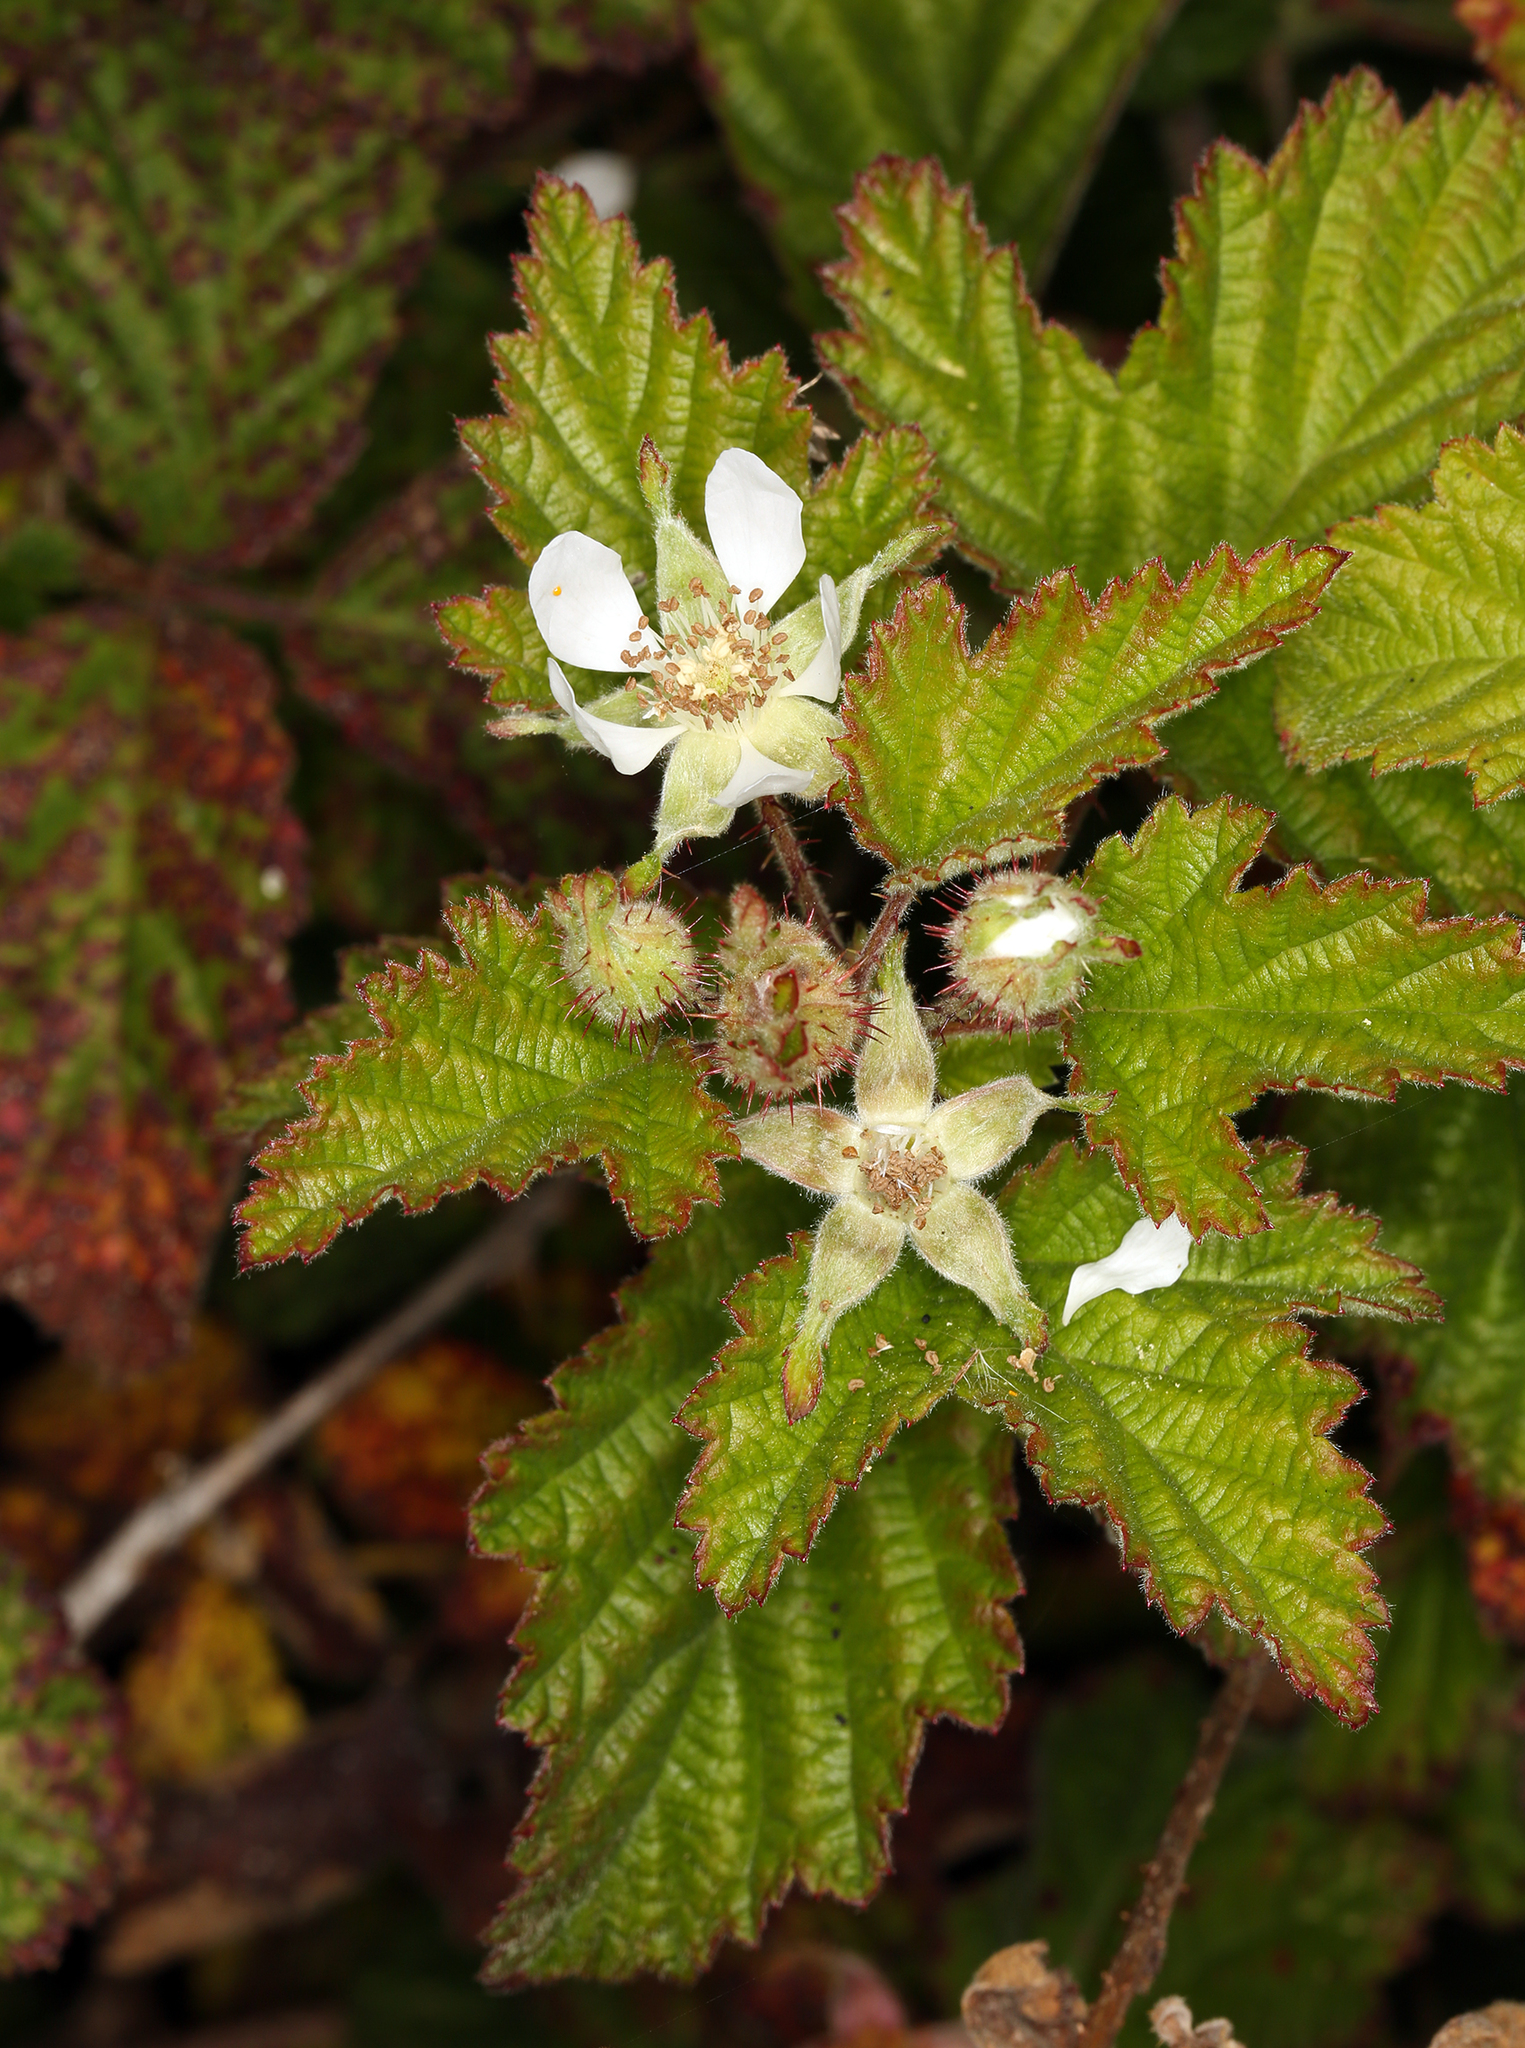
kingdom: Plantae
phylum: Tracheophyta
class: Magnoliopsida
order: Rosales
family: Rosaceae
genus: Rubus
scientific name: Rubus ursinus
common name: Pacific blackberry
